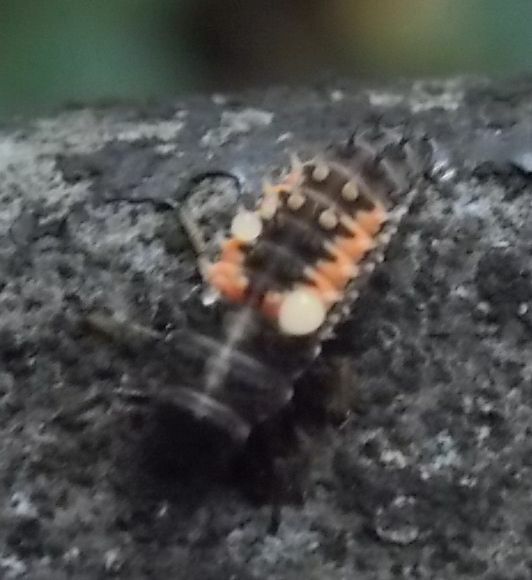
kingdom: Animalia
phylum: Arthropoda
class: Insecta
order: Coleoptera
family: Coccinellidae
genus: Harmonia
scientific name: Harmonia axyridis
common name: Harlequin ladybird
